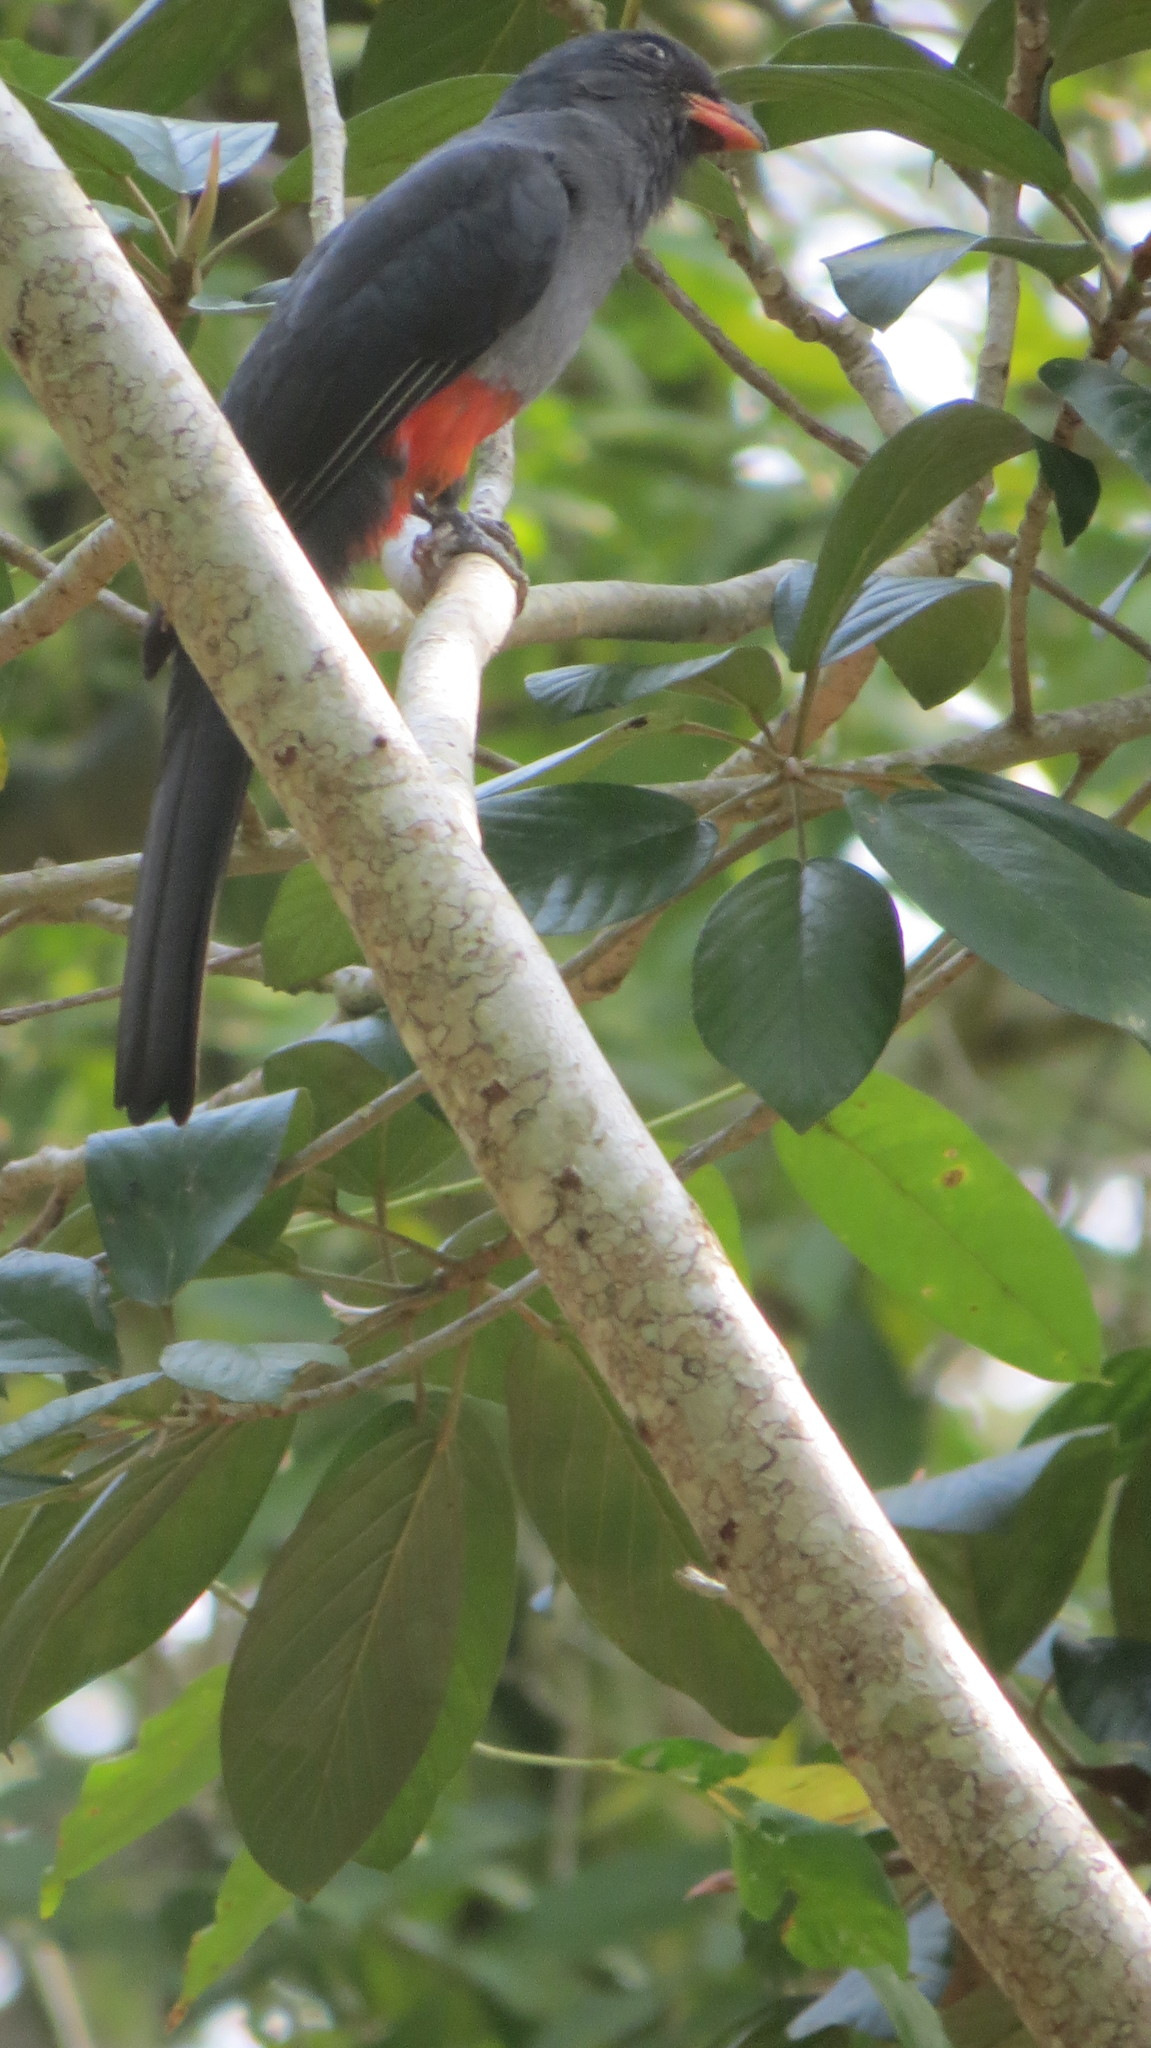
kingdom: Animalia
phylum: Chordata
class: Aves
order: Trogoniformes
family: Trogonidae
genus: Trogon
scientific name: Trogon massena
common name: Slaty-tailed trogon
